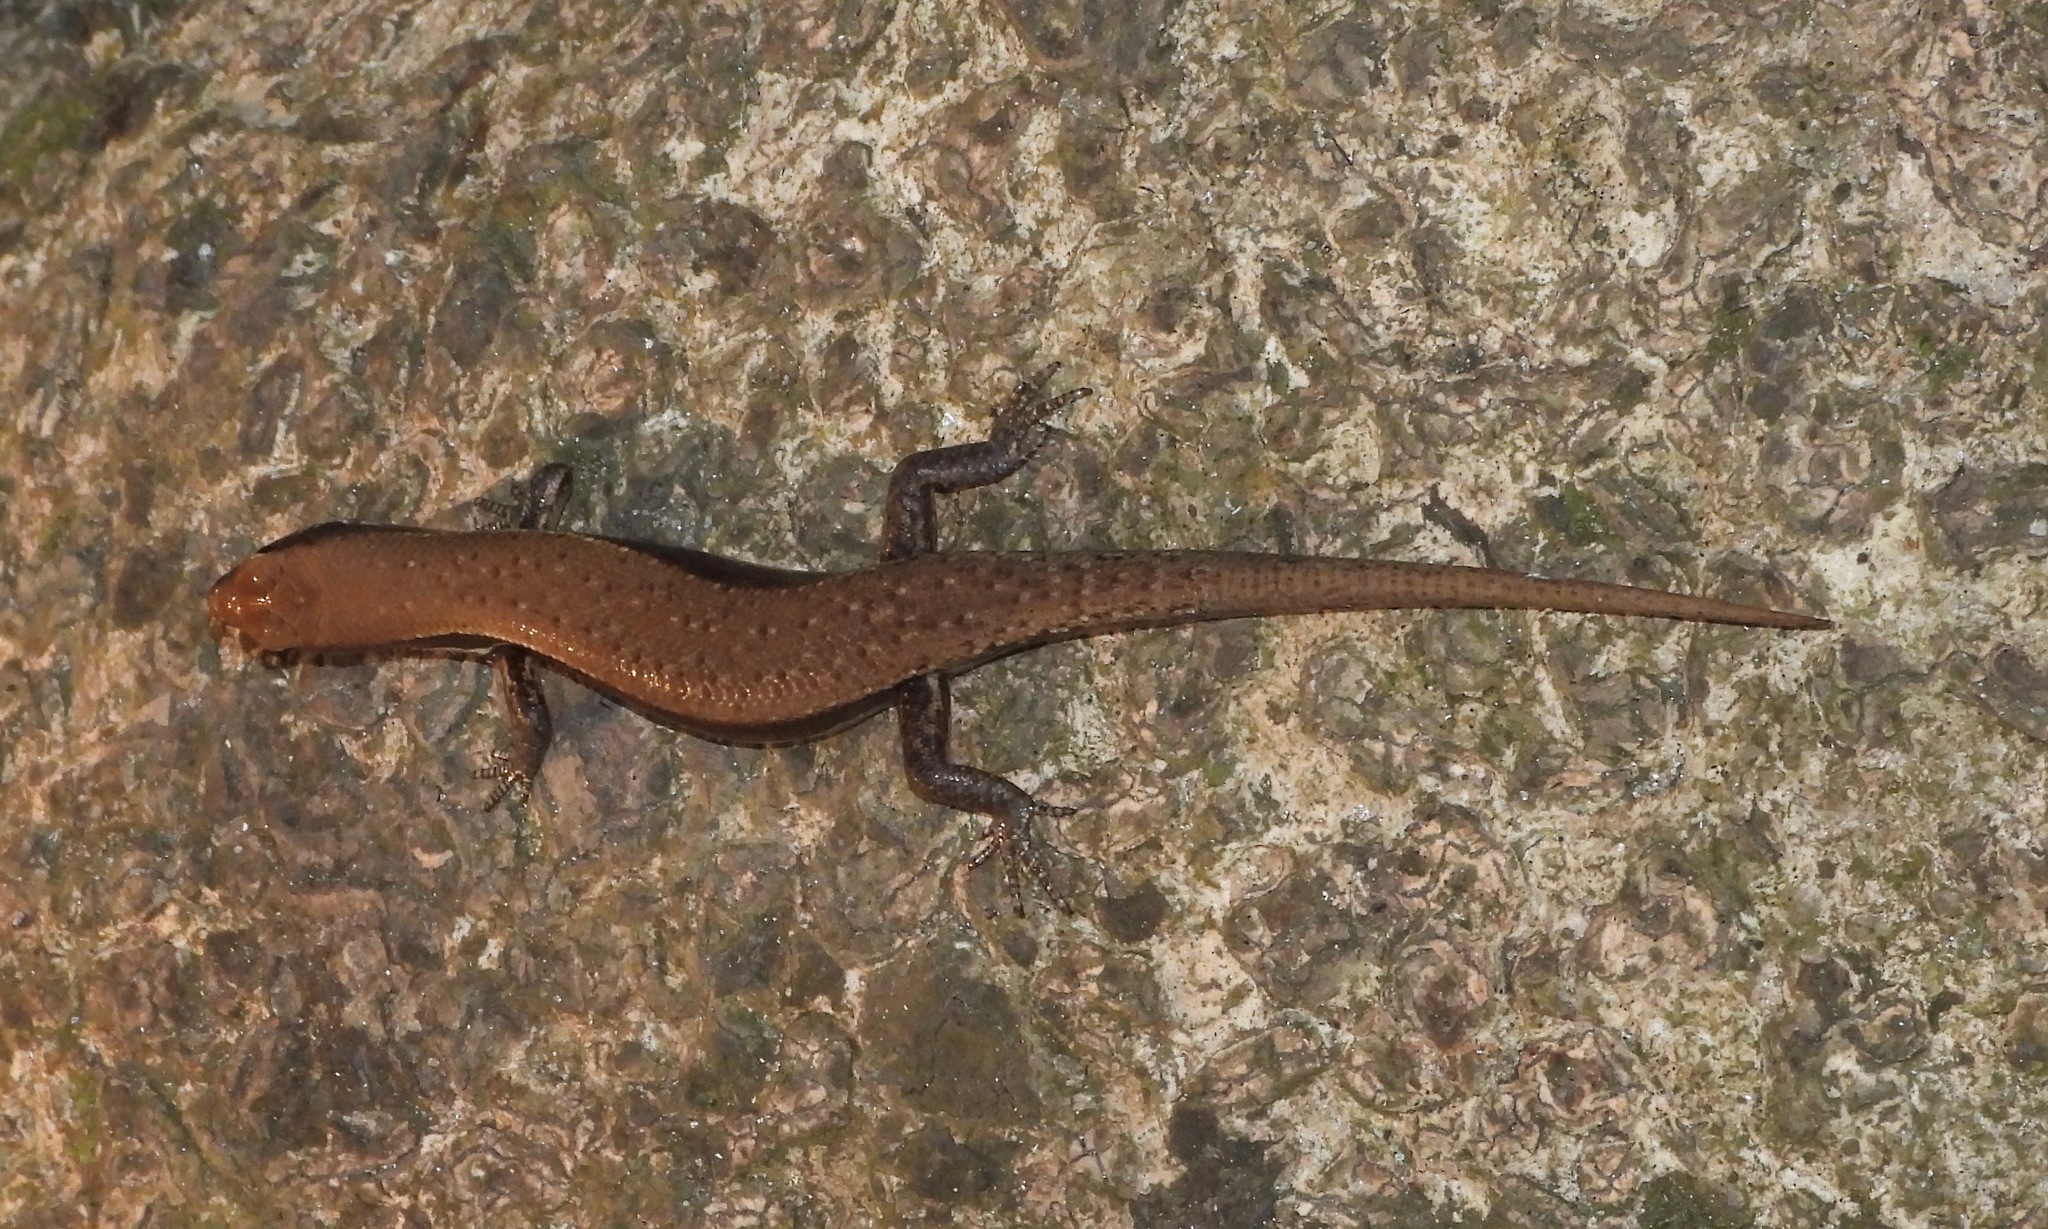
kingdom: Animalia
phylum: Chordata
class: Squamata
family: Scincidae
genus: Panaspis
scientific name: Panaspis breviceps
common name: Peters' lidless skink
